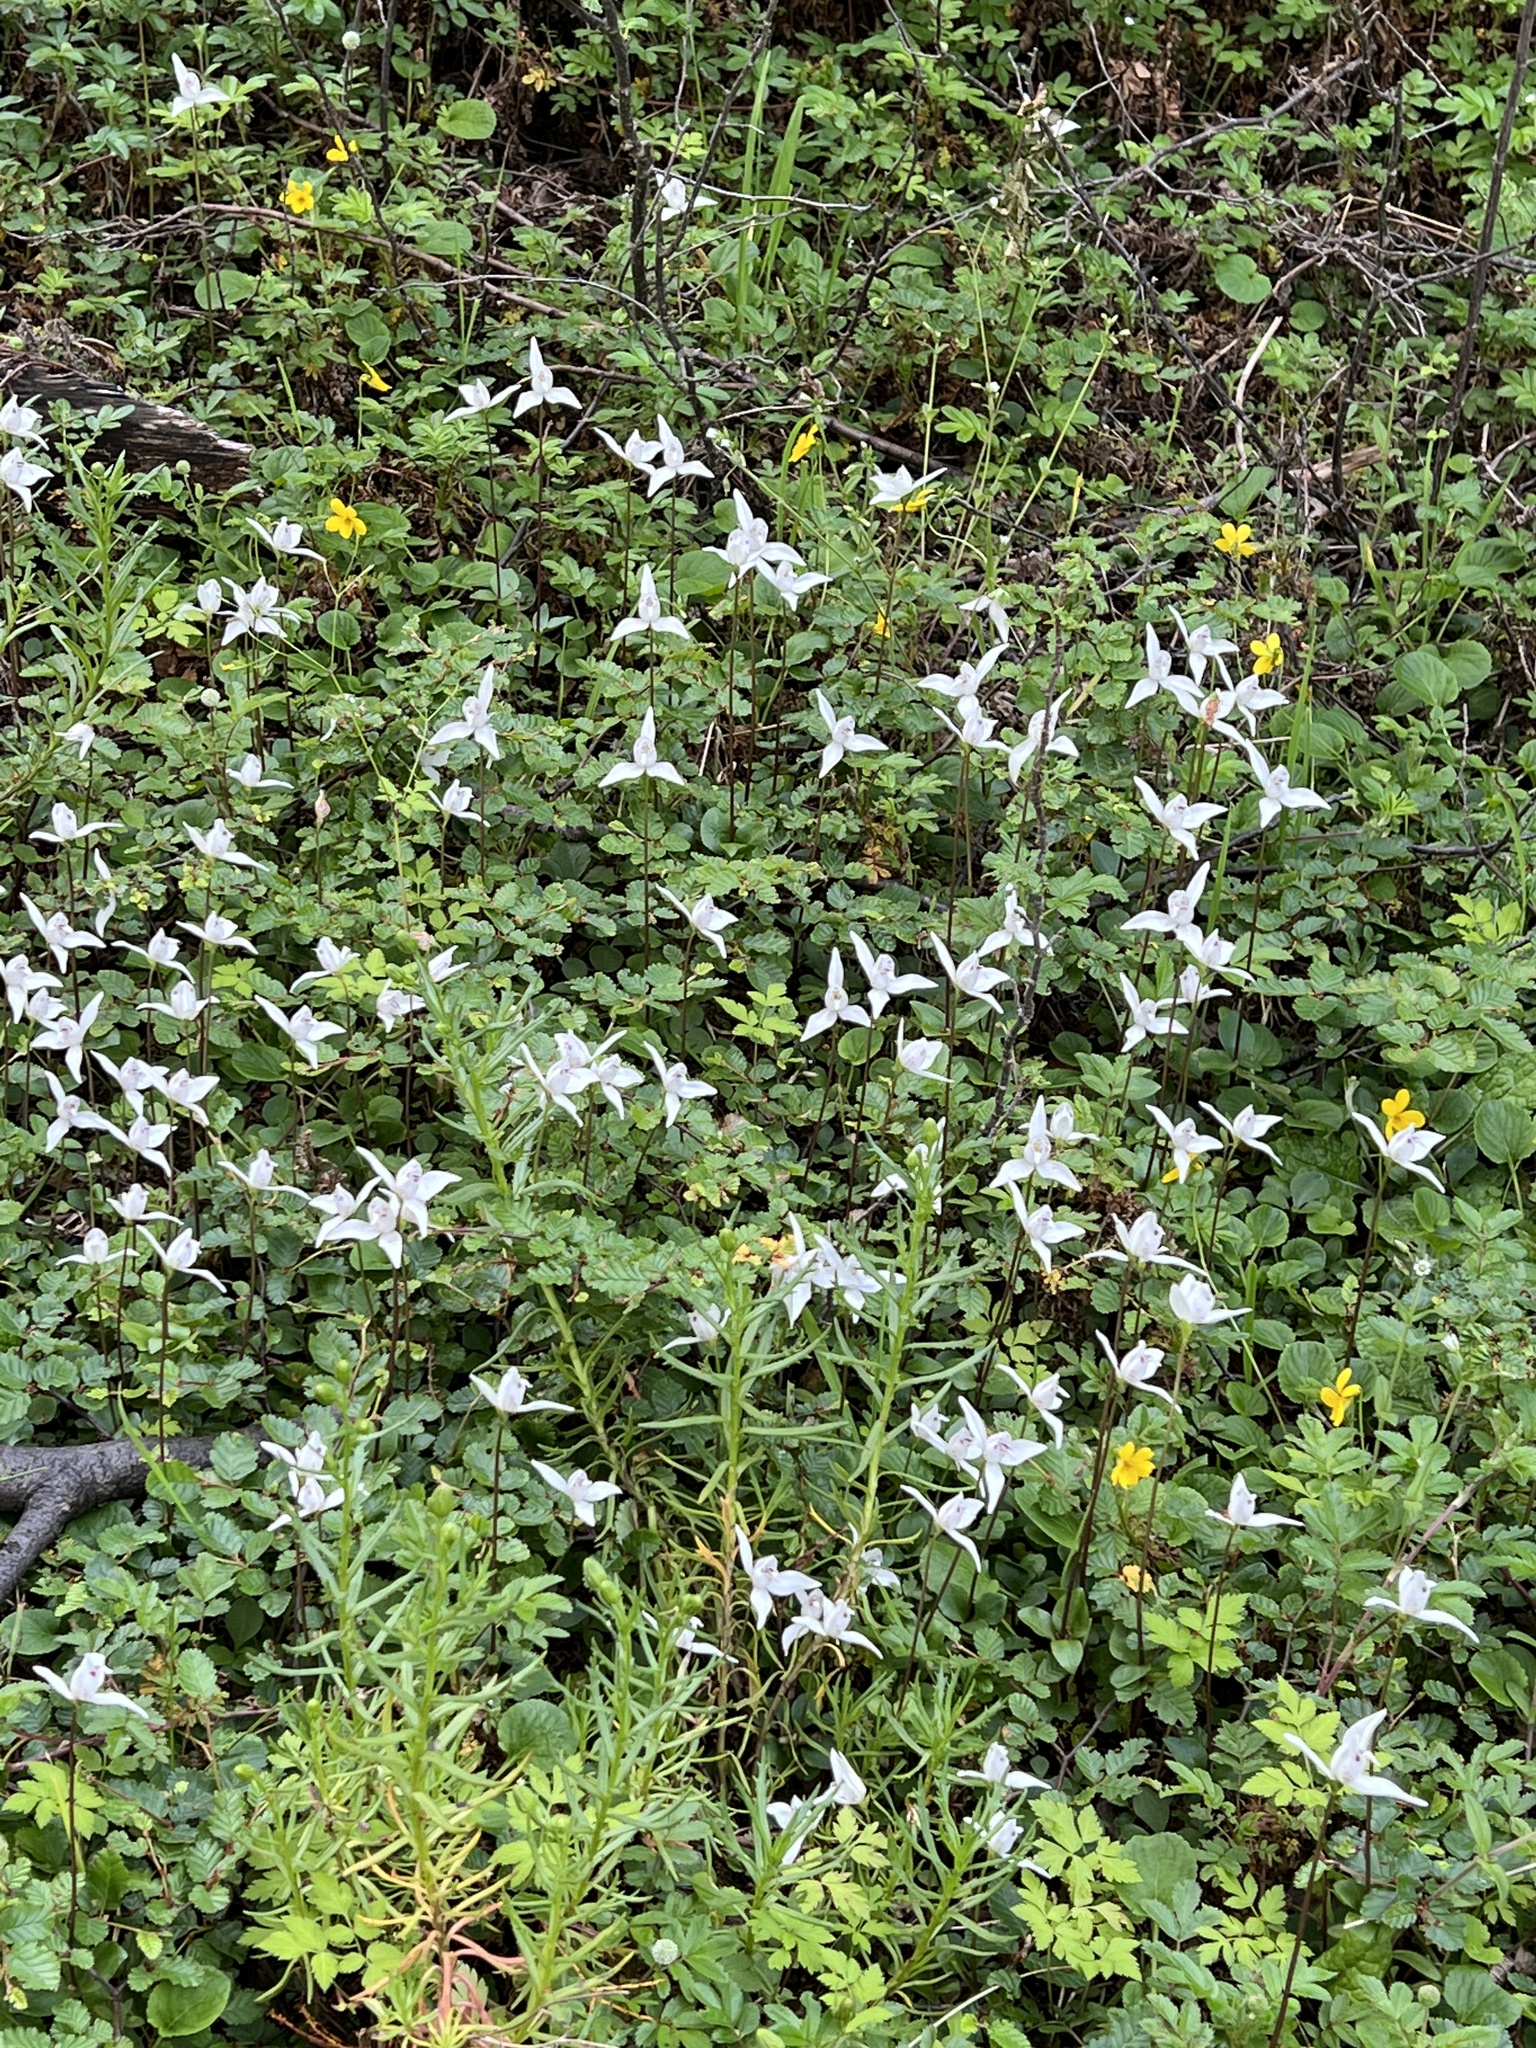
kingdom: Plantae
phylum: Tracheophyta
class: Liliopsida
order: Asparagales
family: Orchidaceae
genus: Codonorchis
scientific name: Codonorchis lessonii
